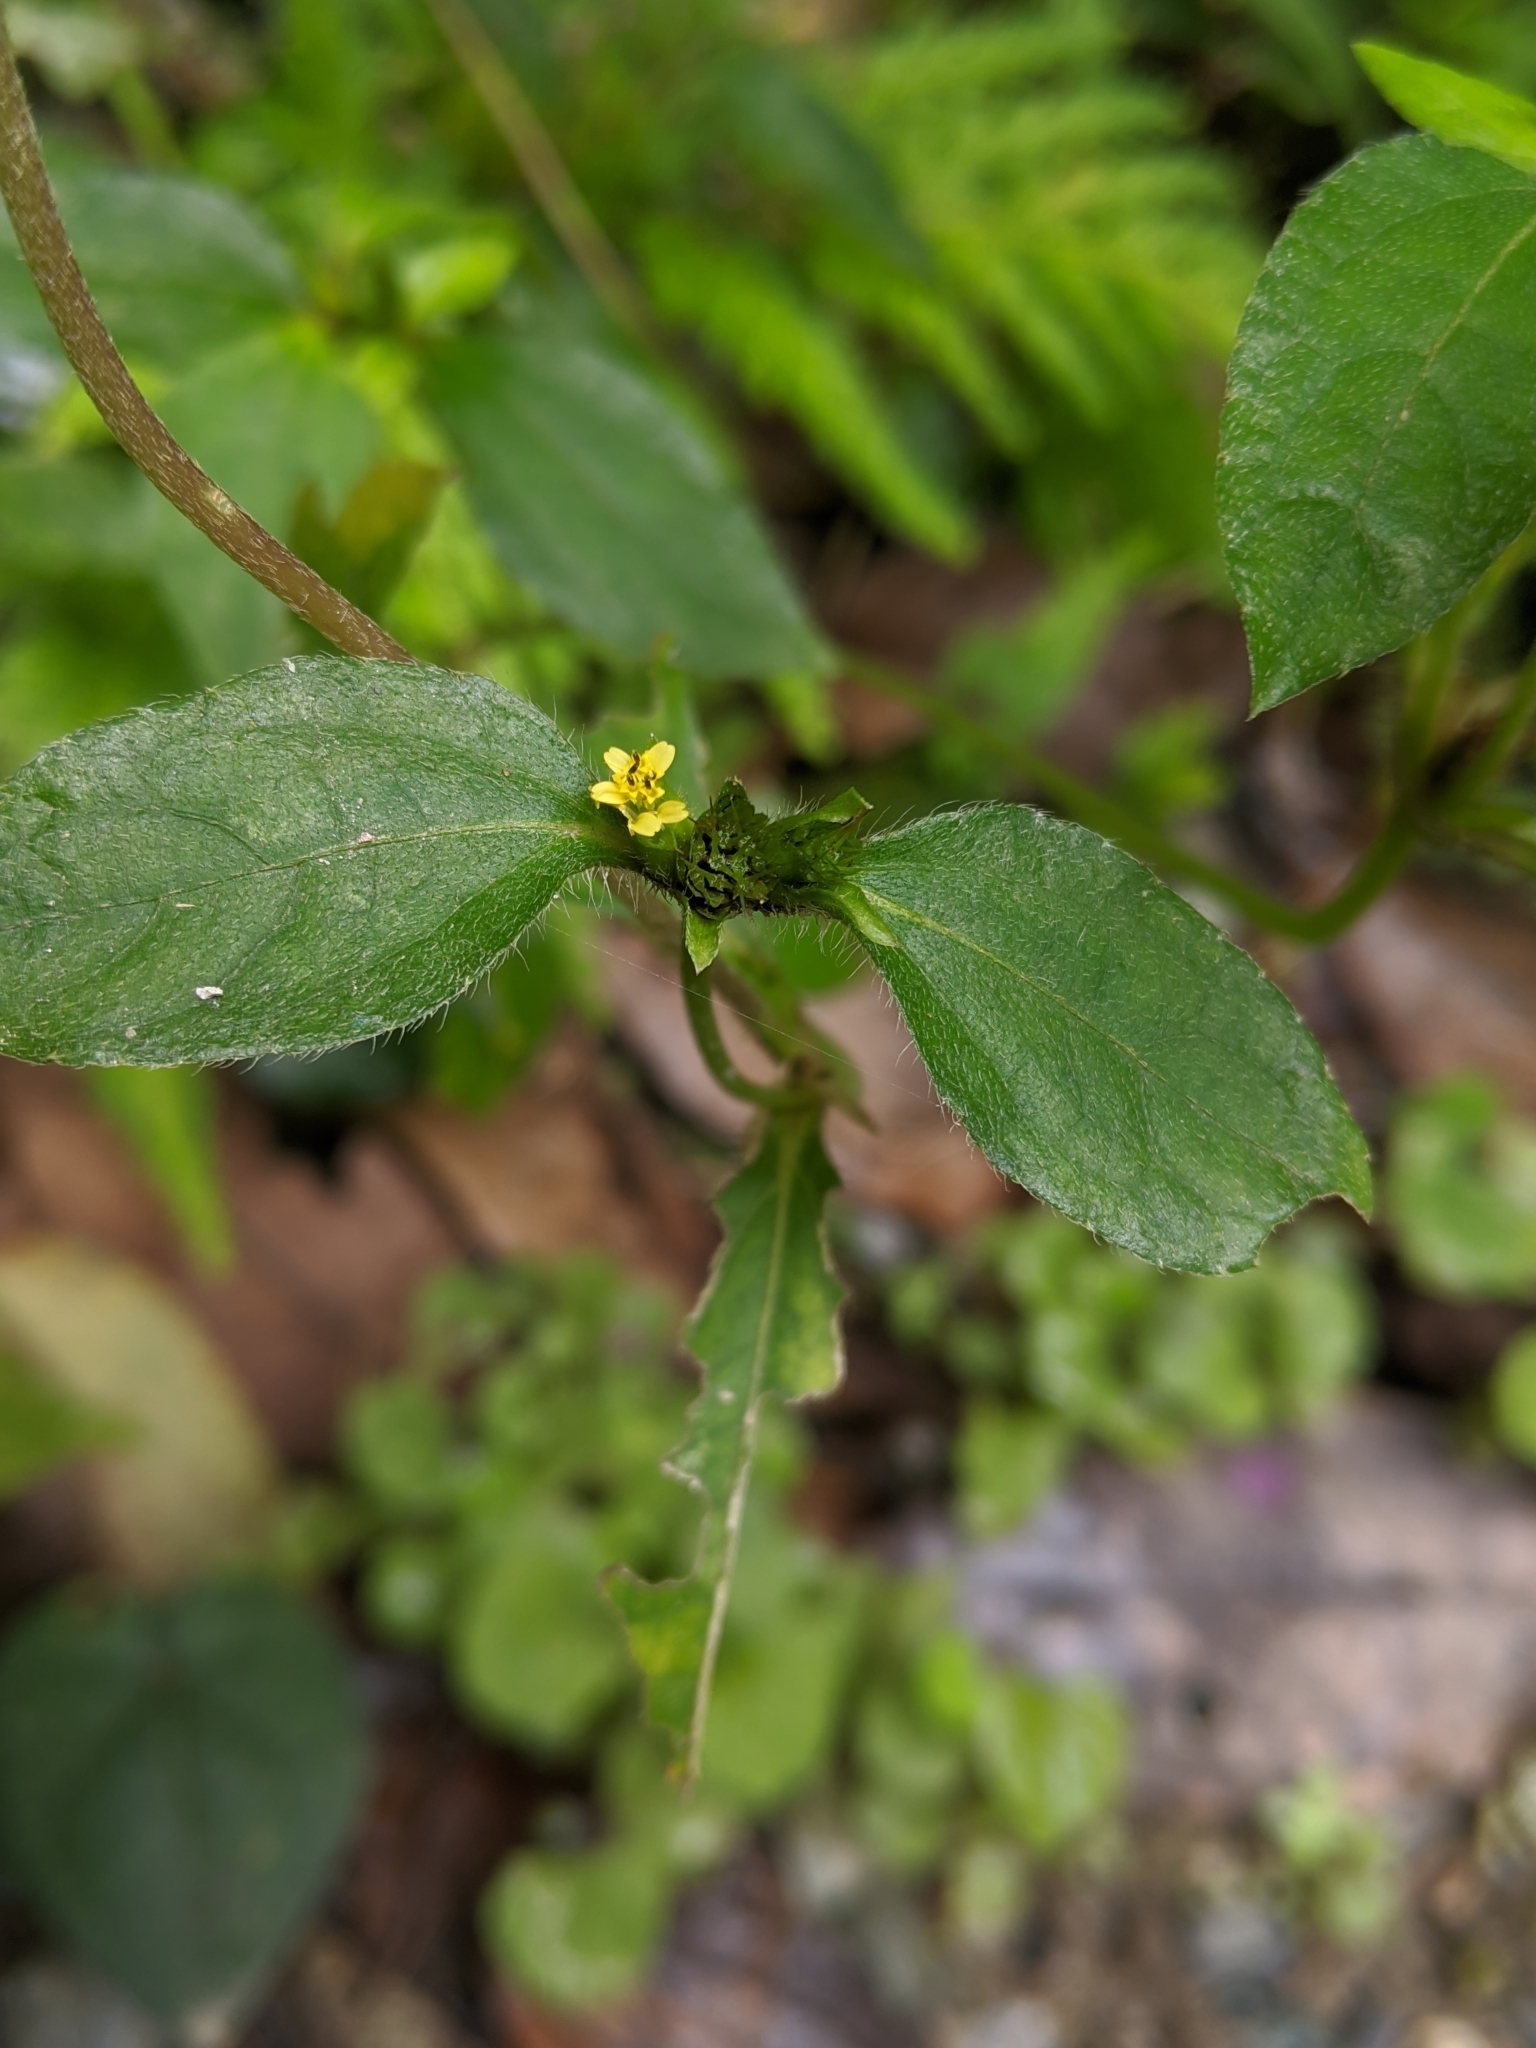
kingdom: Plantae
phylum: Tracheophyta
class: Magnoliopsida
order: Asterales
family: Asteraceae
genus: Synedrella
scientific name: Synedrella nodiflora
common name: Nodeweed
